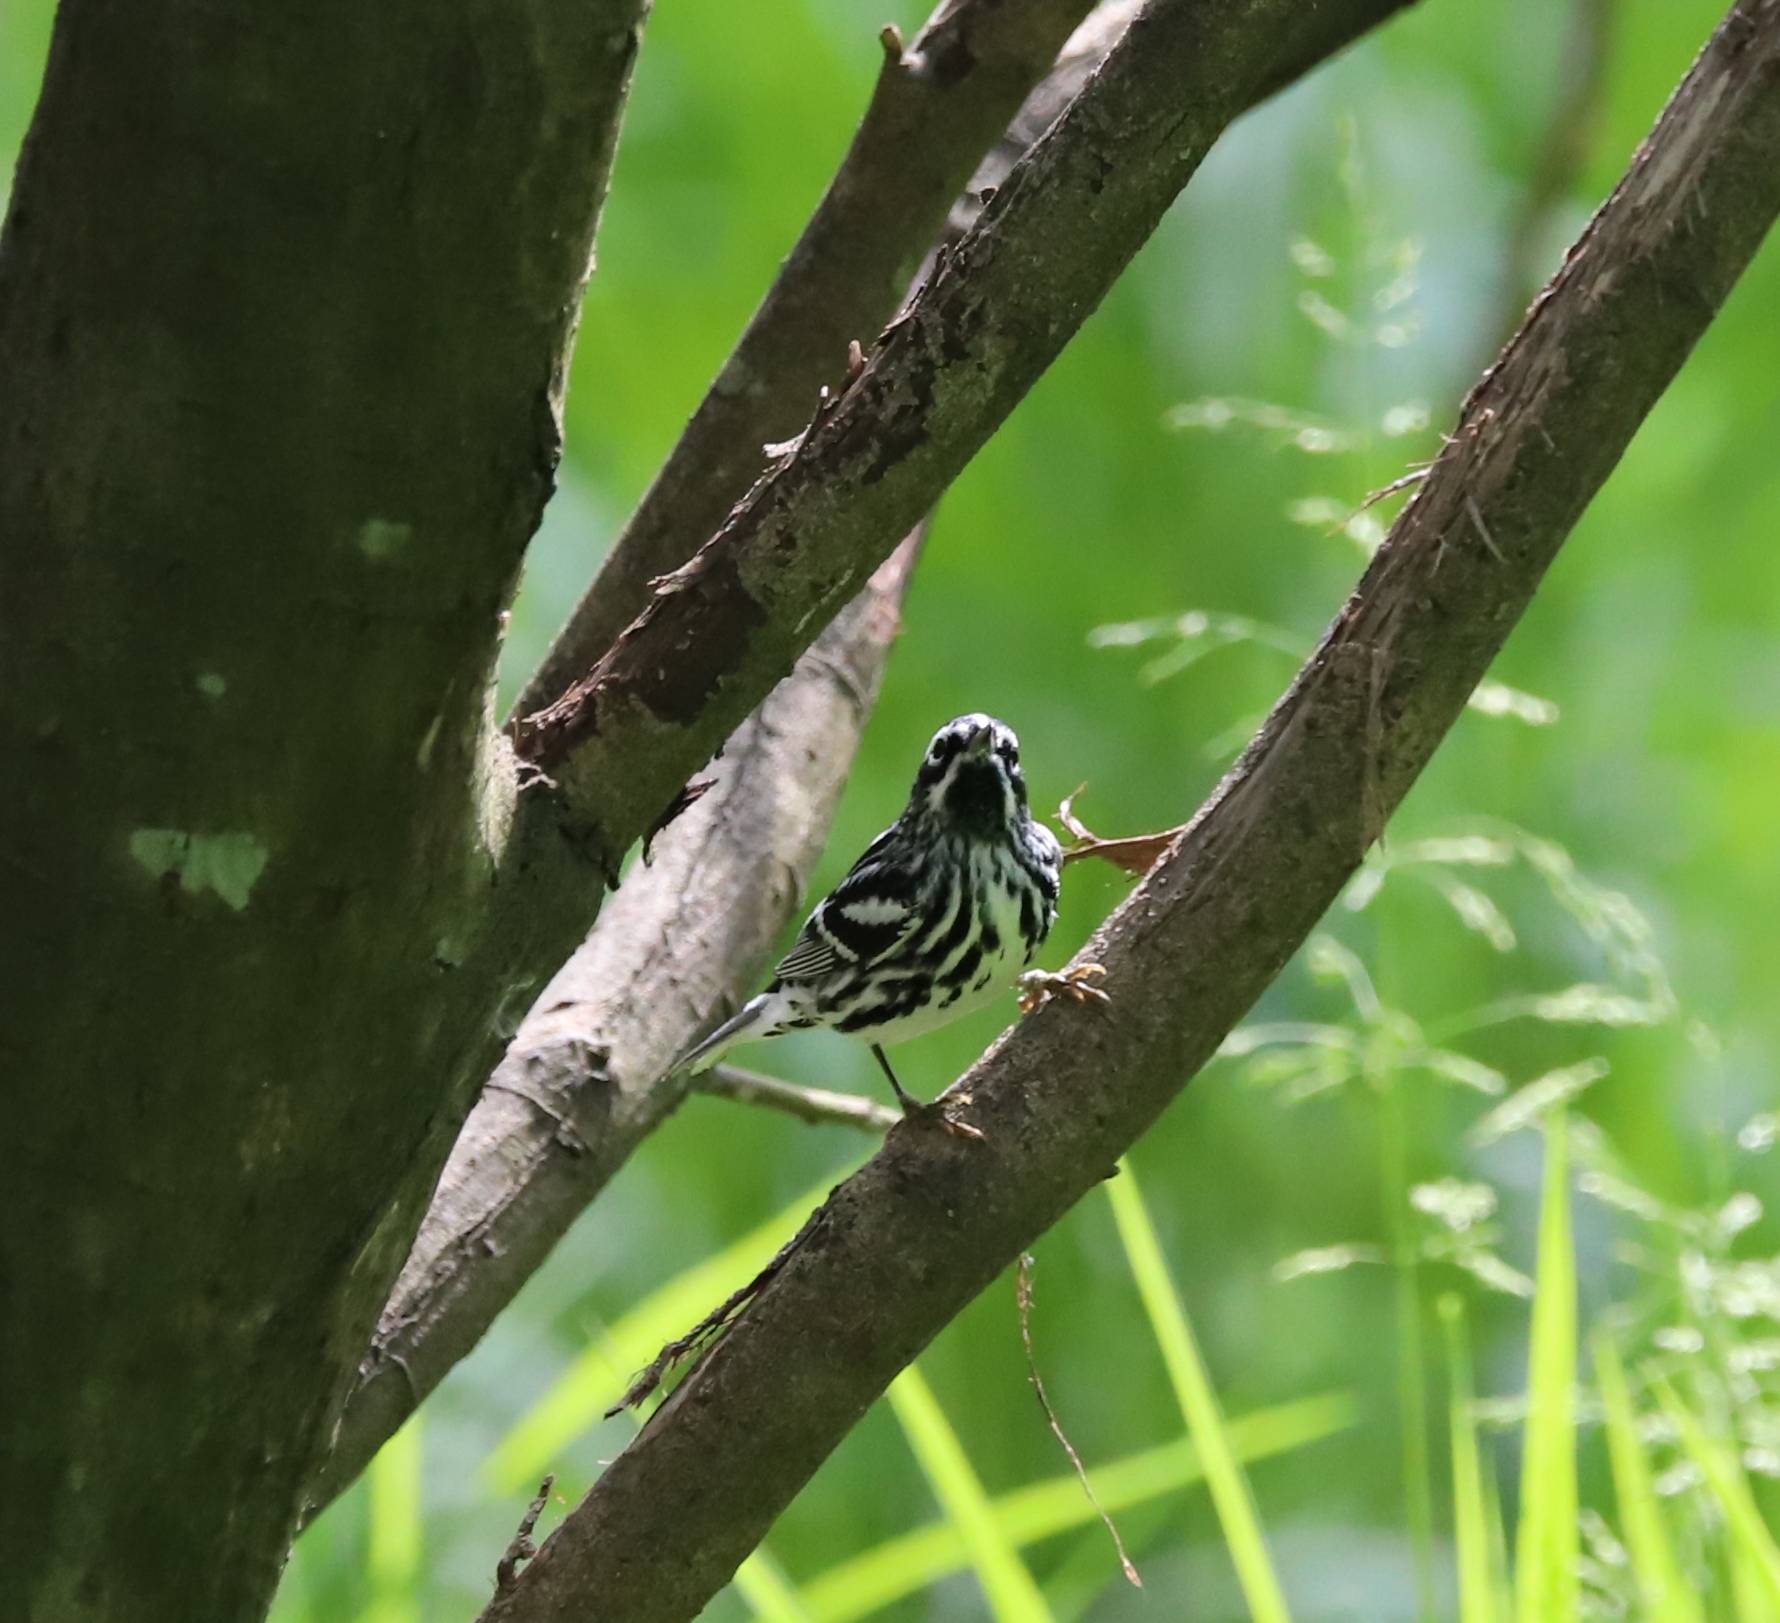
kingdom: Animalia
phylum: Chordata
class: Aves
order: Passeriformes
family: Parulidae
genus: Mniotilta
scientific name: Mniotilta varia
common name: Black-and-white warbler
